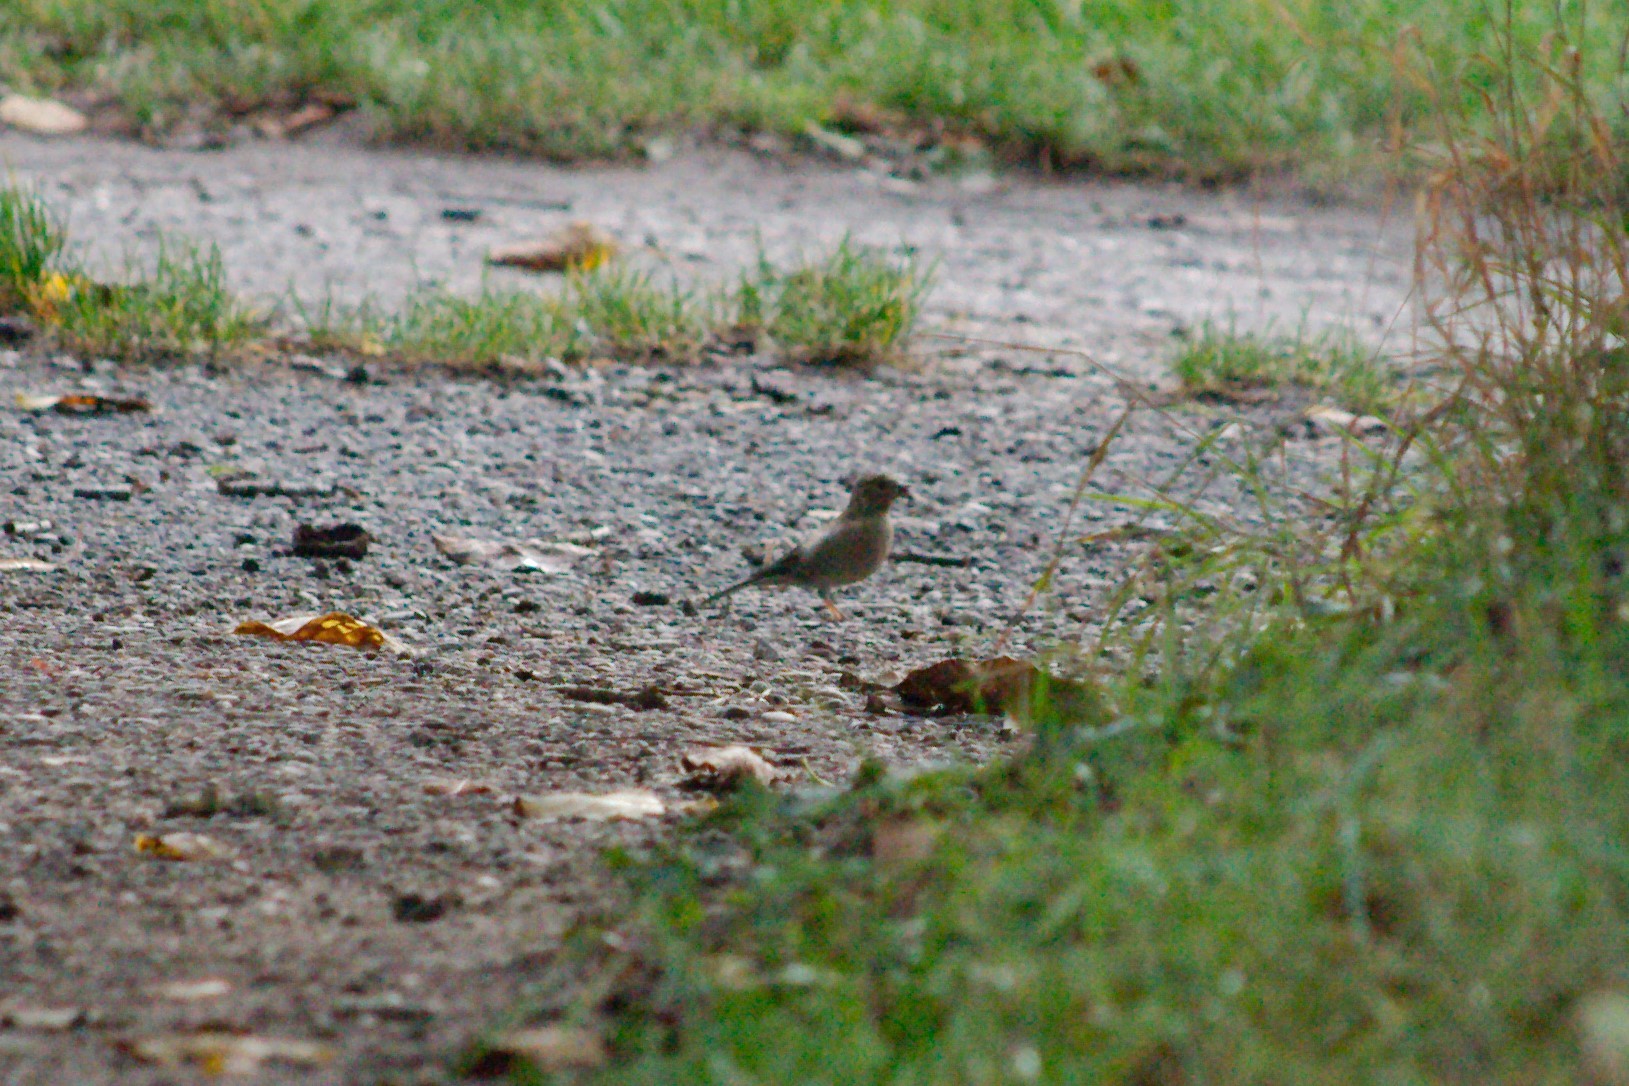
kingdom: Animalia
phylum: Chordata
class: Aves
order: Passeriformes
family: Fringillidae
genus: Fringilla
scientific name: Fringilla coelebs
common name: Common chaffinch
